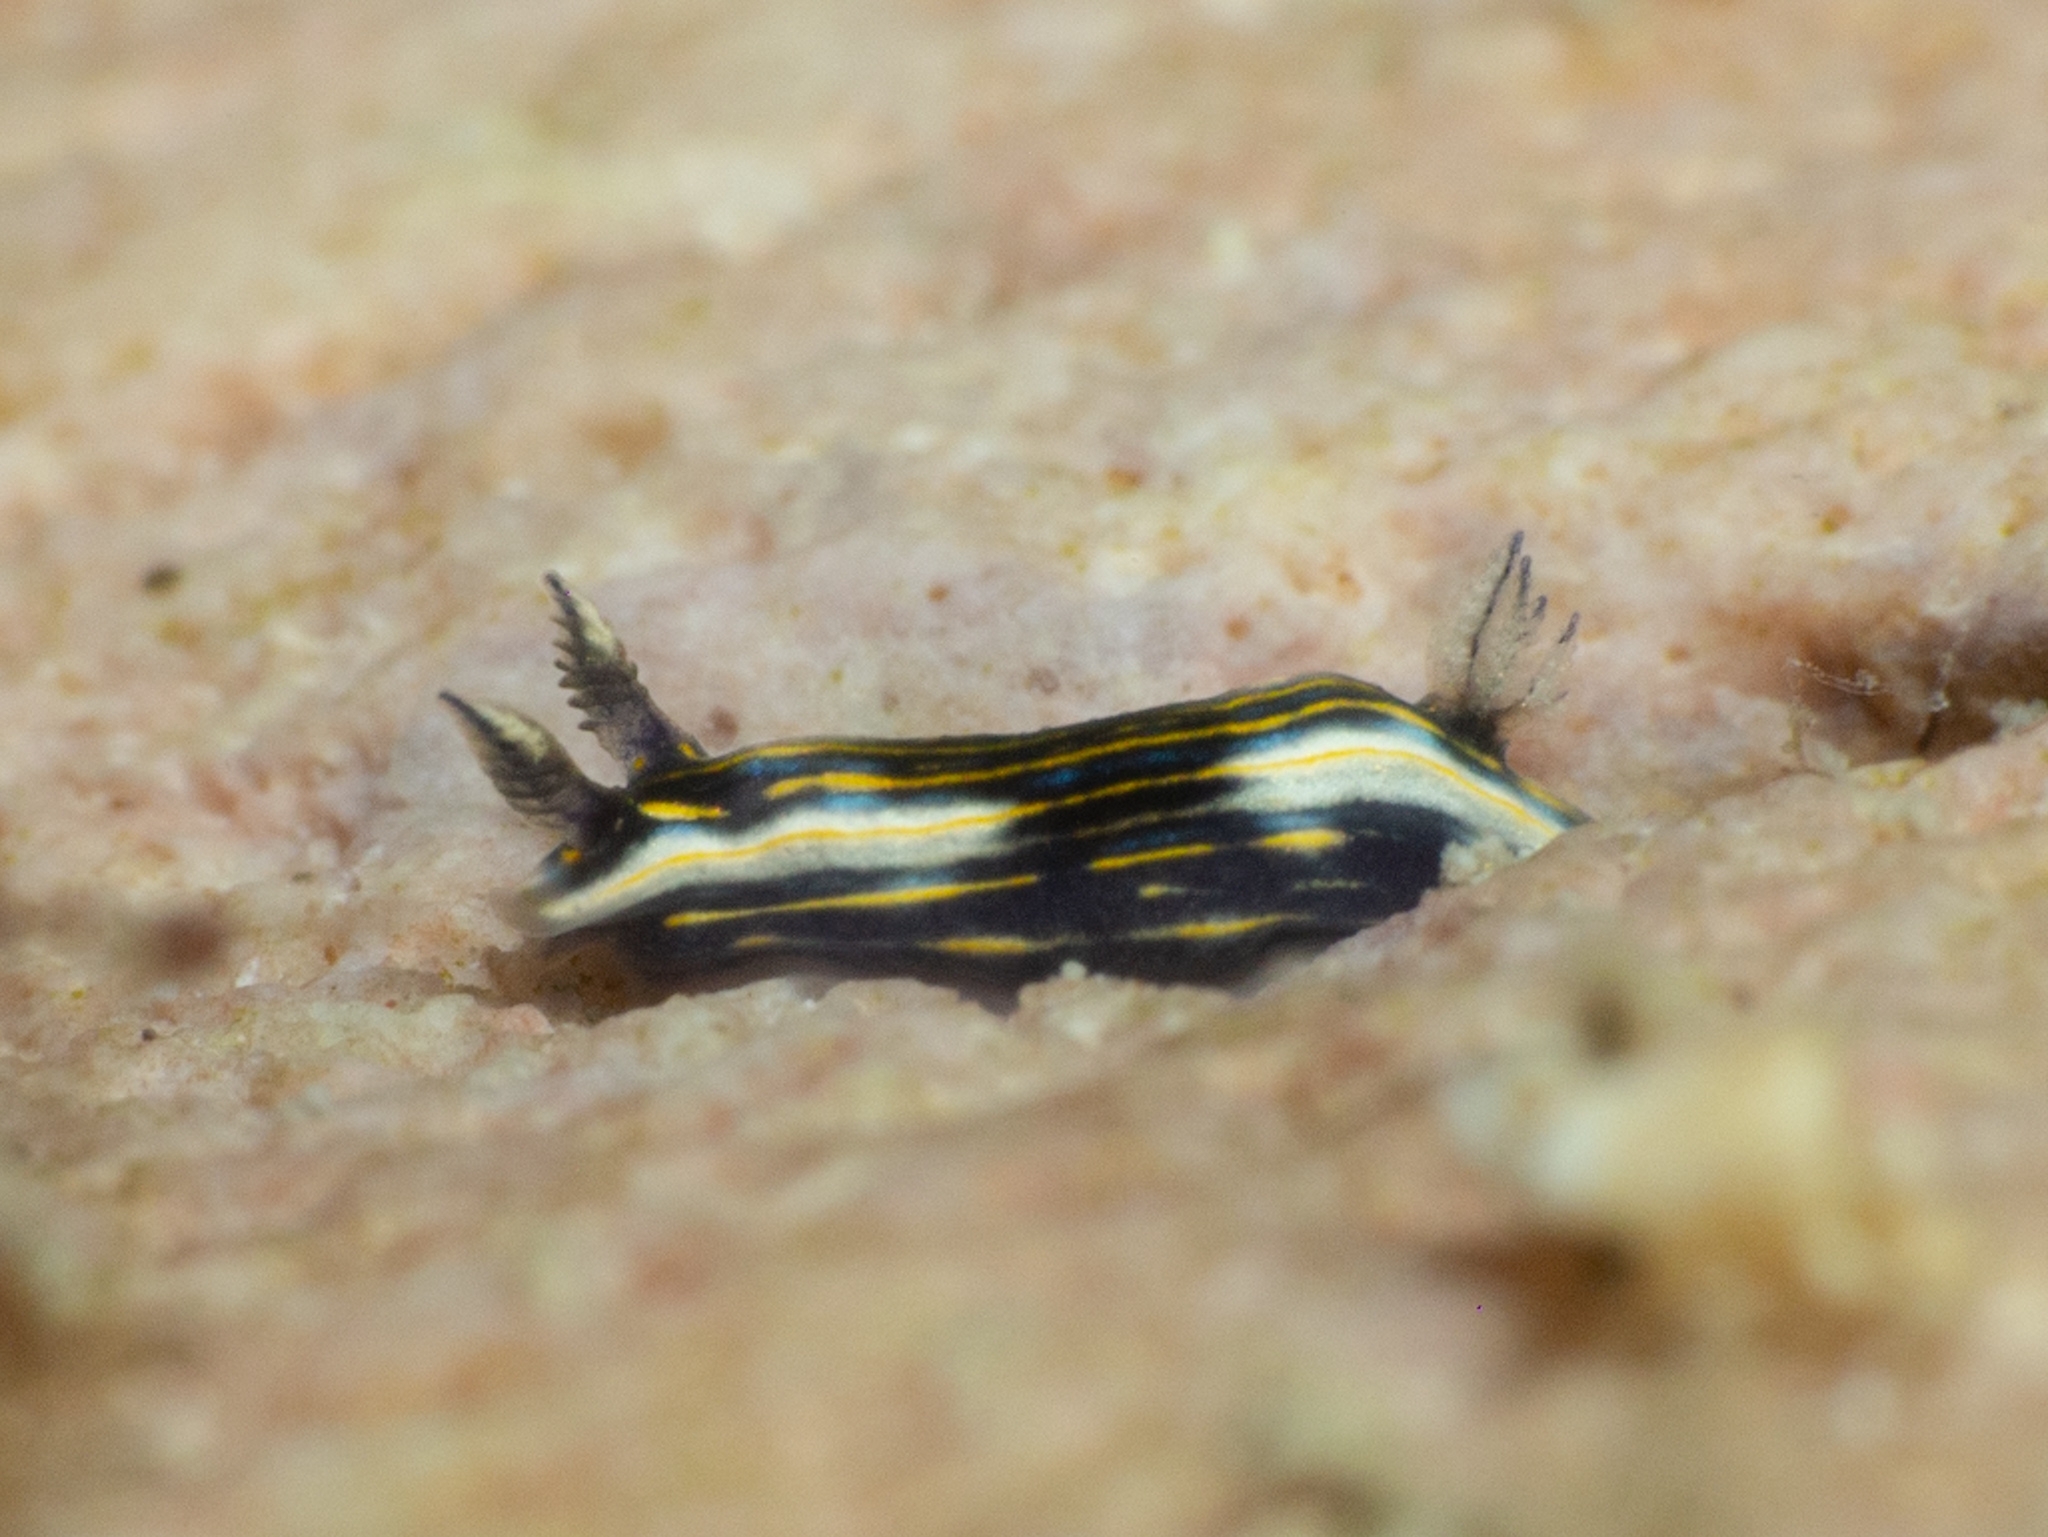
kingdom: Animalia
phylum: Mollusca
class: Gastropoda
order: Nudibranchia
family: Chromodorididae
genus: Felimare
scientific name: Felimare ruthae
